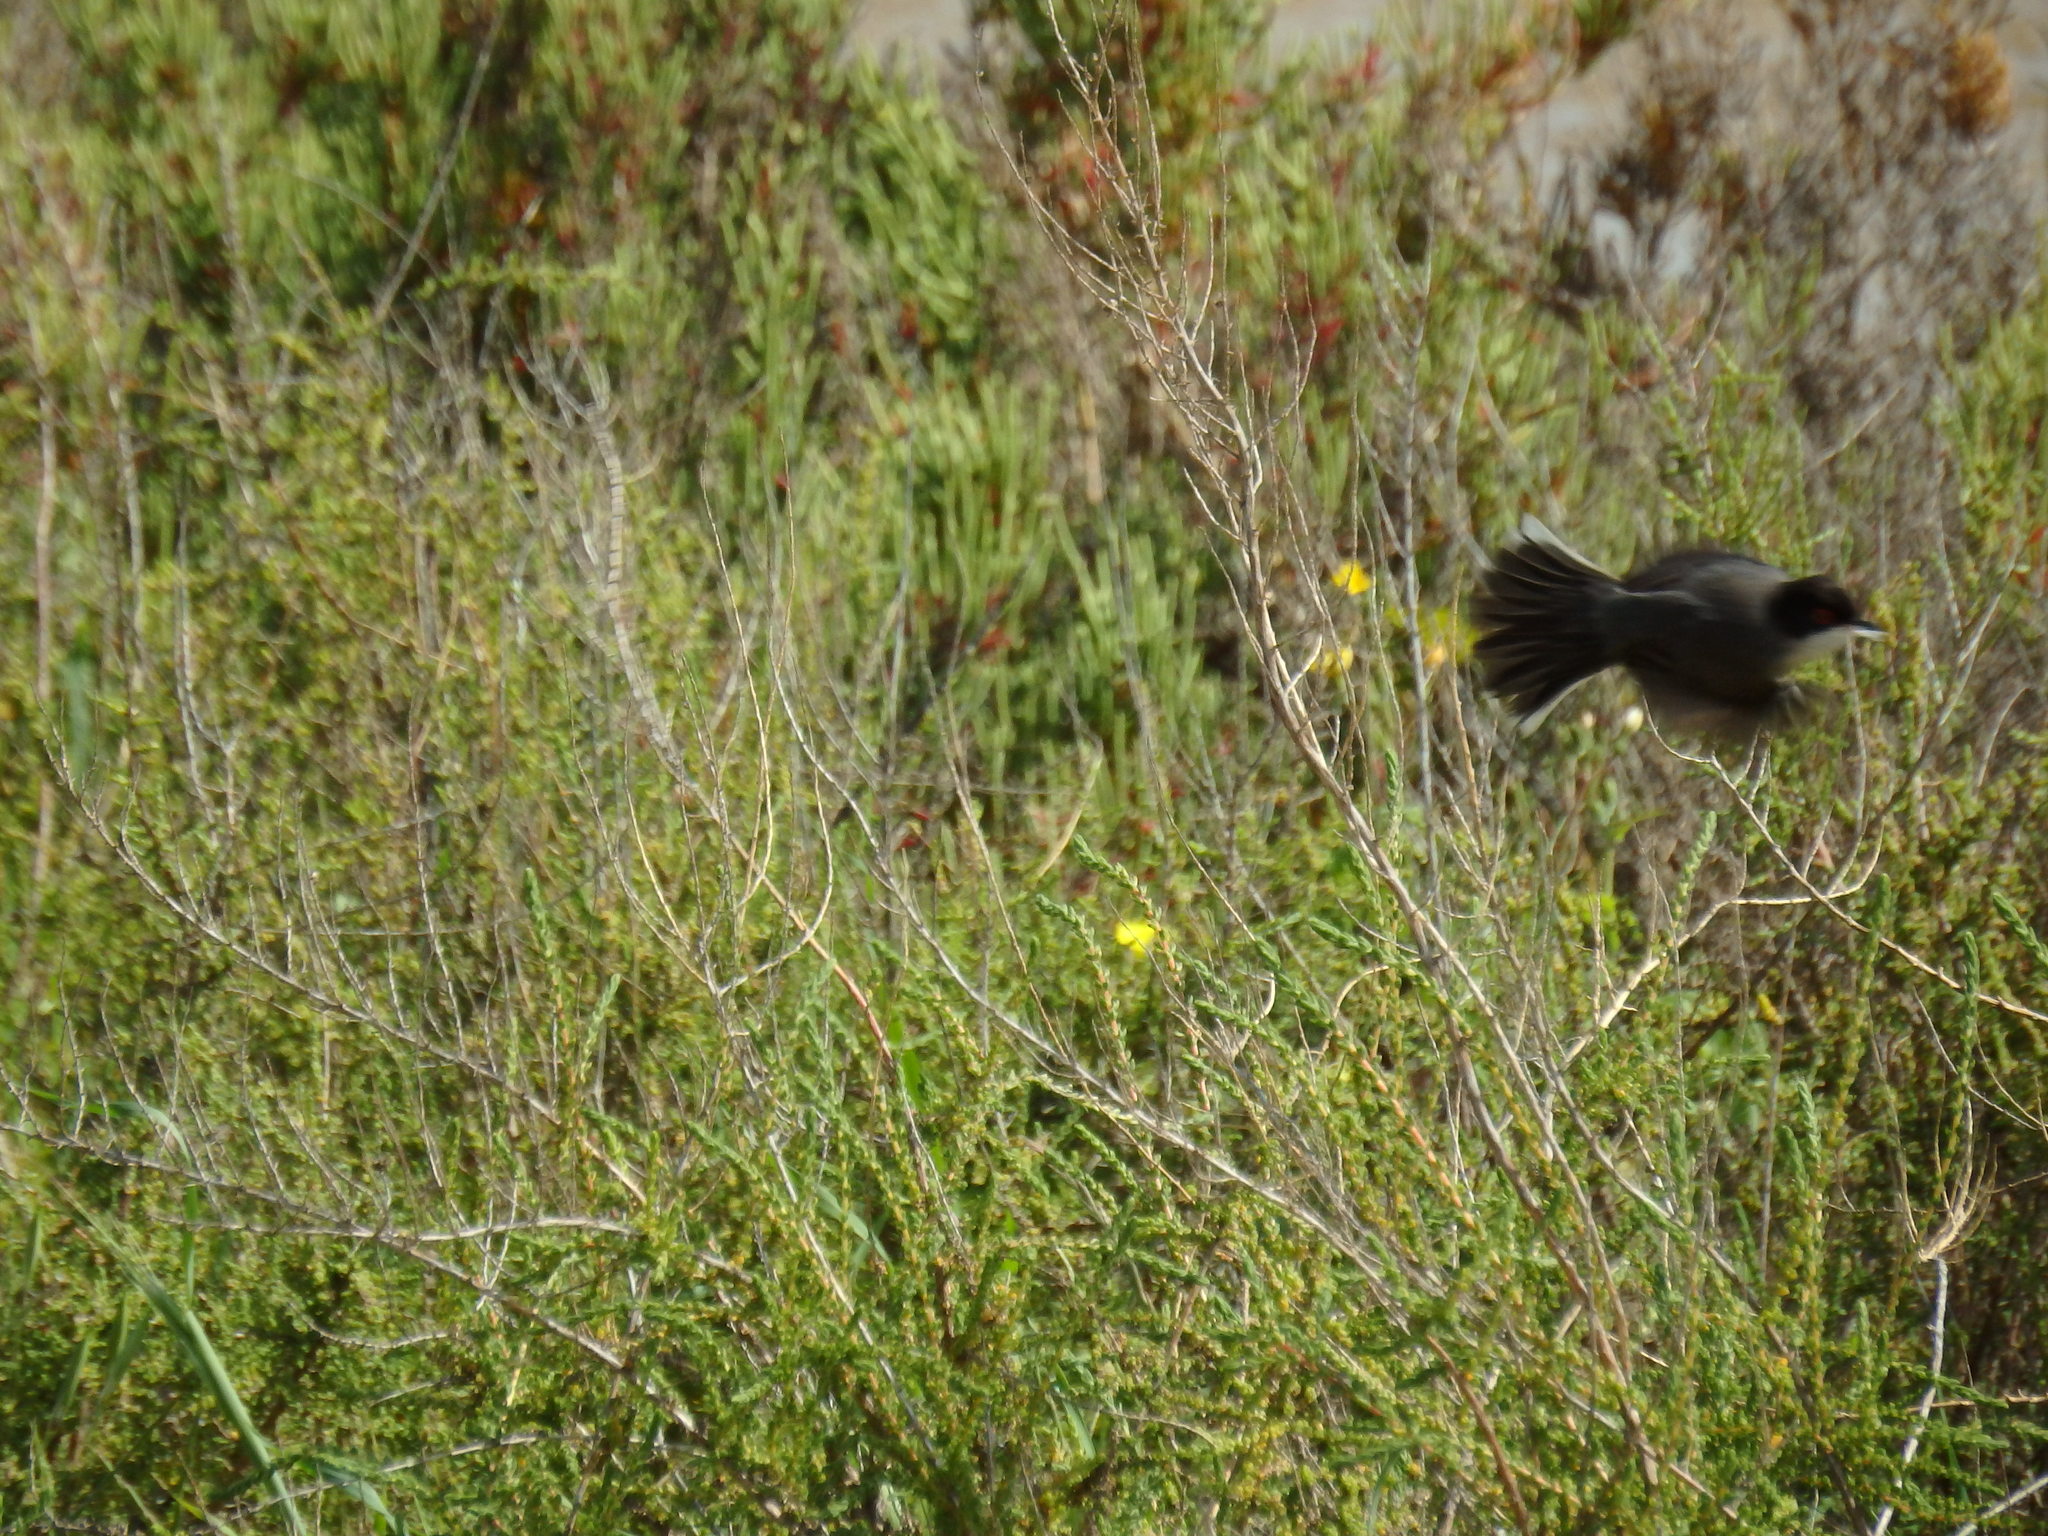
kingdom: Animalia
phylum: Chordata
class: Aves
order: Passeriformes
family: Sylviidae
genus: Curruca
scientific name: Curruca melanocephala
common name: Sardinian warbler
